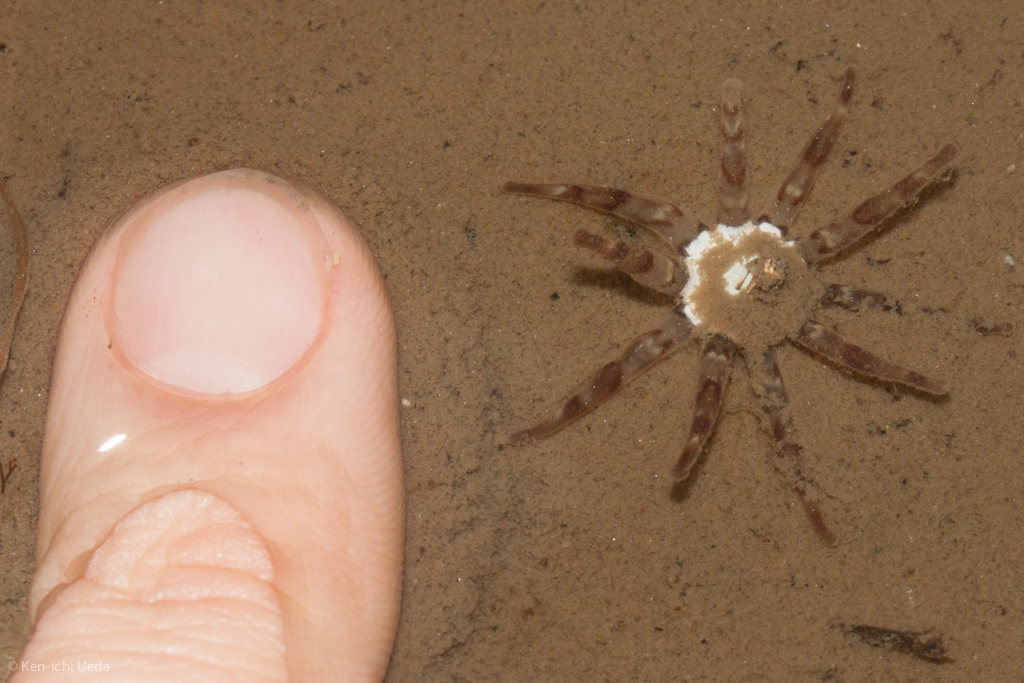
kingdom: Animalia
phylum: Cnidaria
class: Anthozoa
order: Actiniaria
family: Halcampidae
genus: Halcampa
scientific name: Halcampa decemtentaculata
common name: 10-tentacle burrowing anemone
